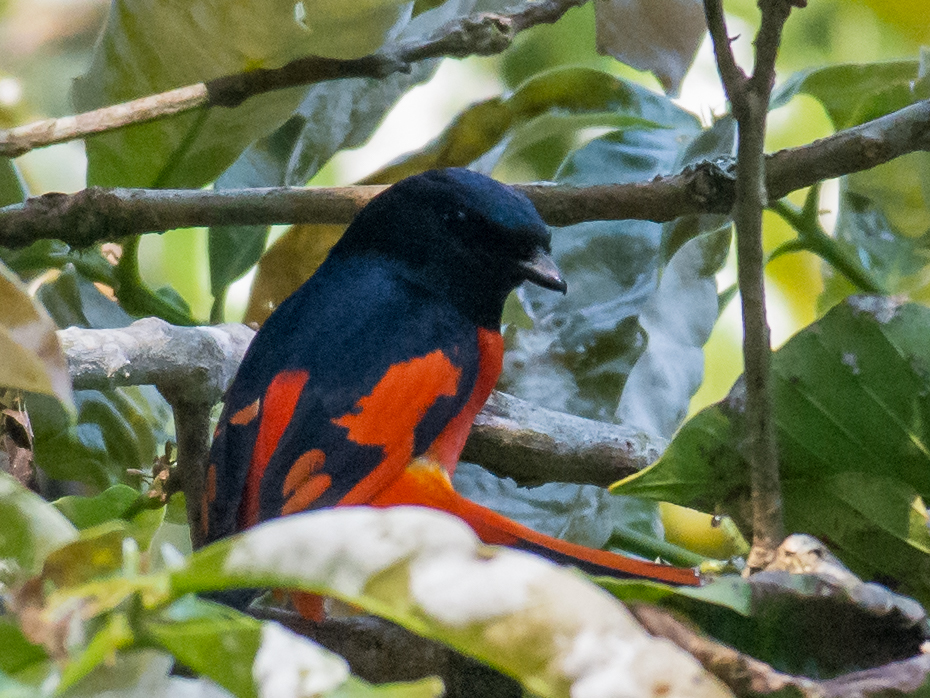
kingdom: Animalia
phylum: Chordata
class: Aves
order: Passeriformes
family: Campephagidae
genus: Pericrocotus
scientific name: Pericrocotus speciosus
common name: Scarlet minivet
